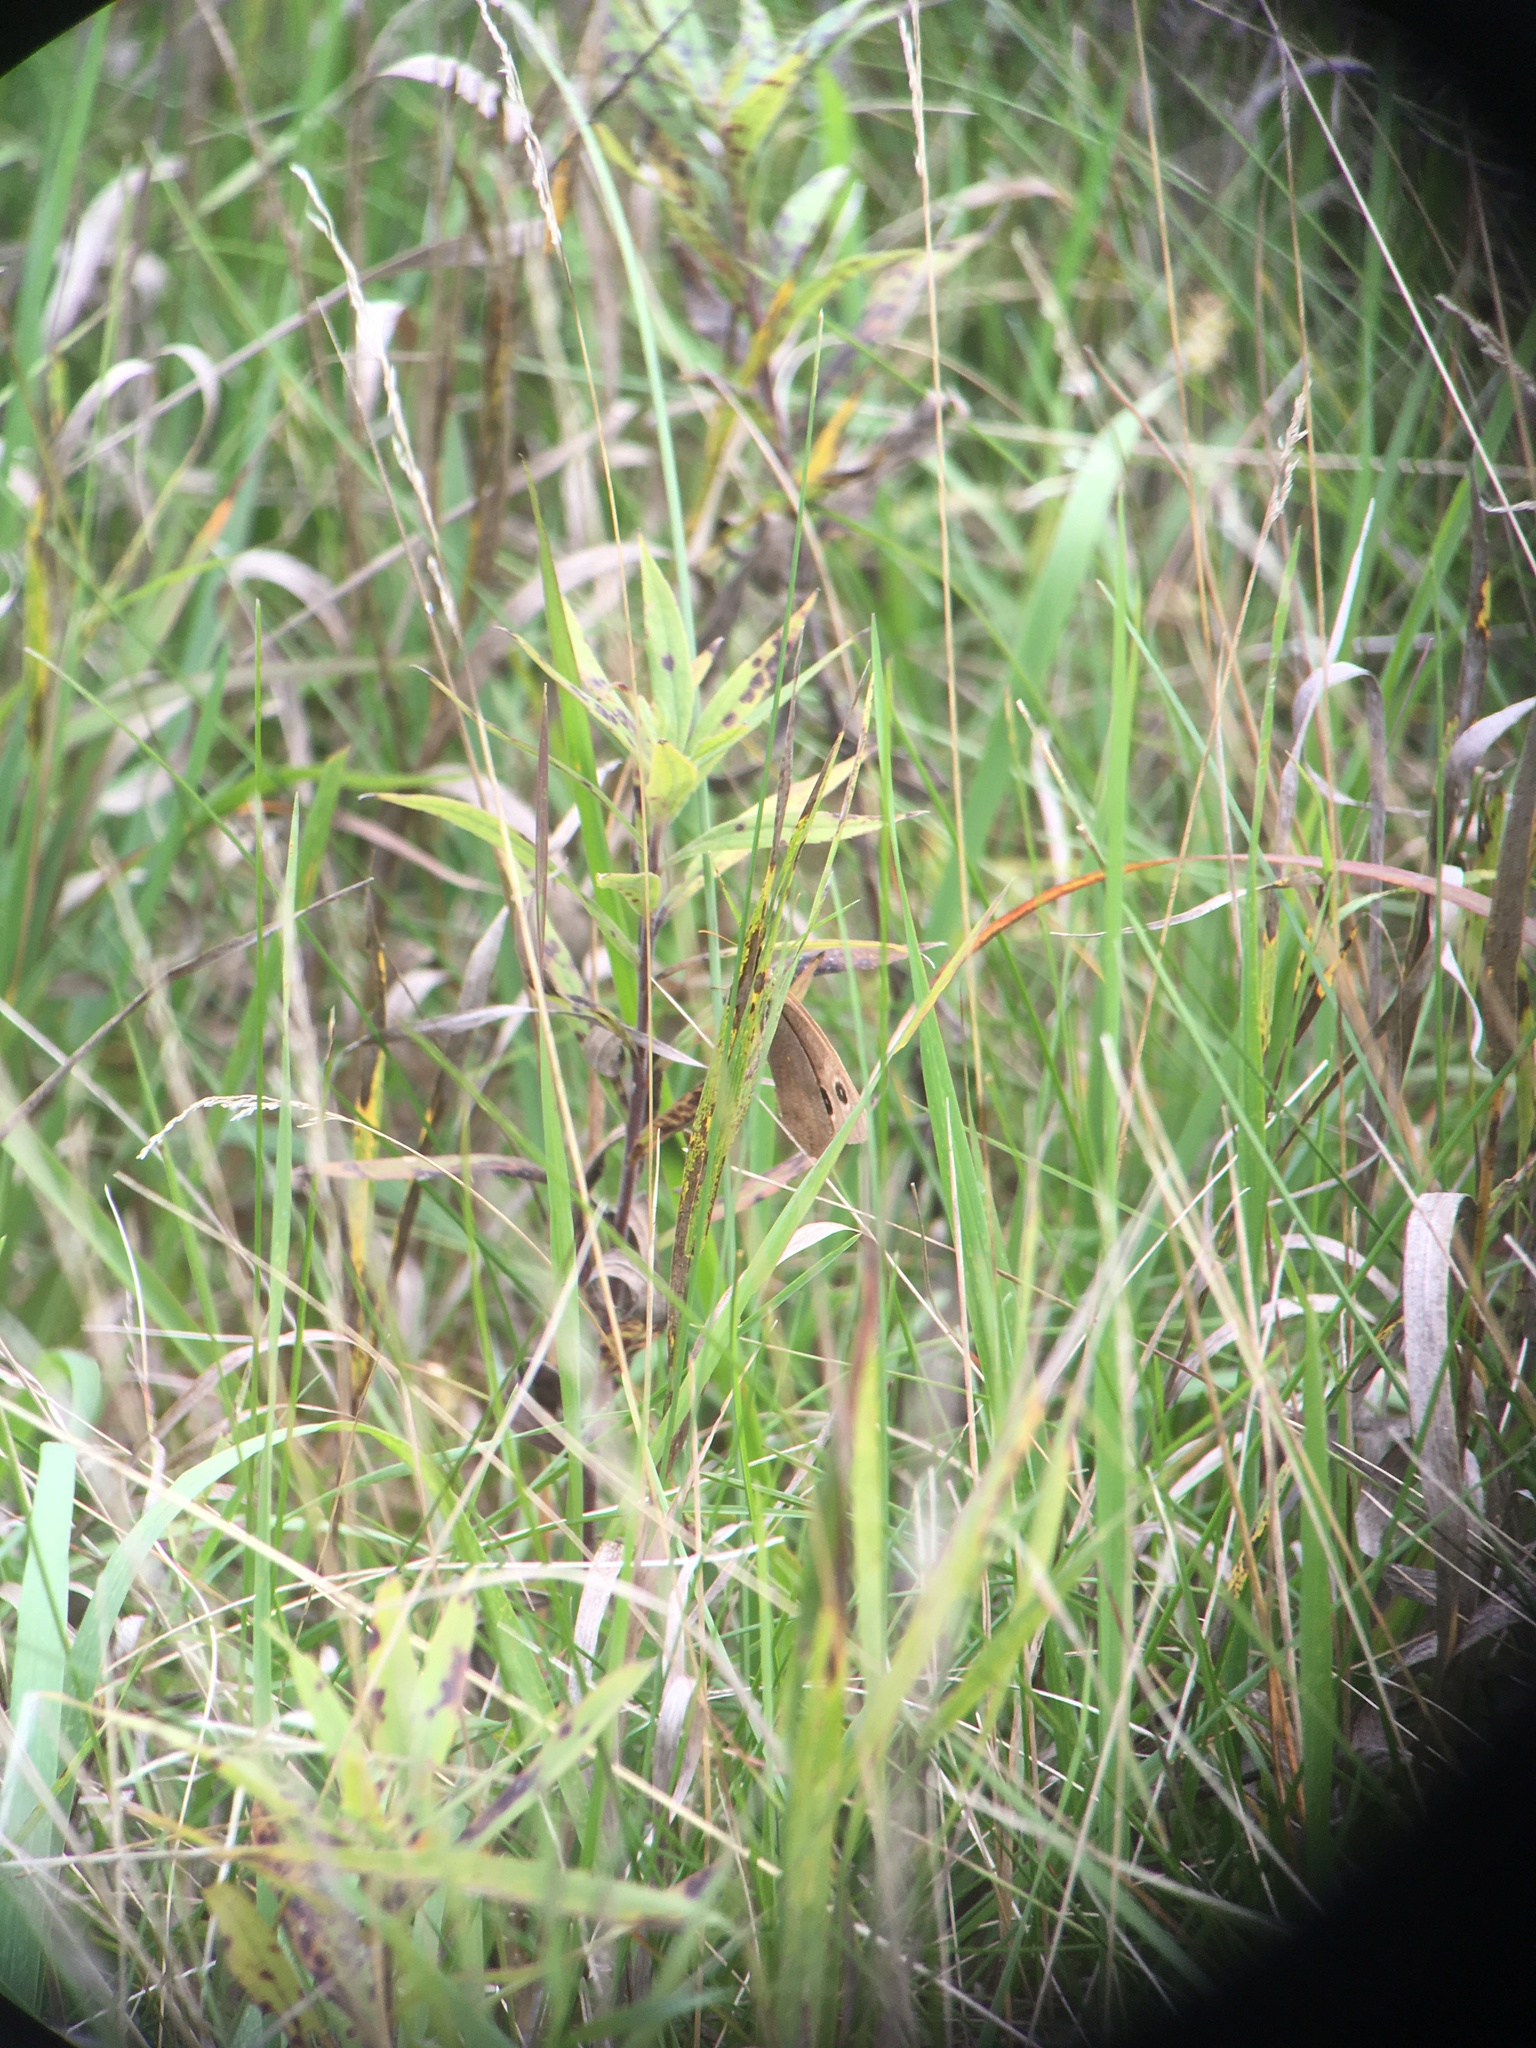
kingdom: Animalia
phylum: Arthropoda
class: Insecta
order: Lepidoptera
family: Nymphalidae
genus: Cercyonis
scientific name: Cercyonis pegala
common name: Common wood-nymph
